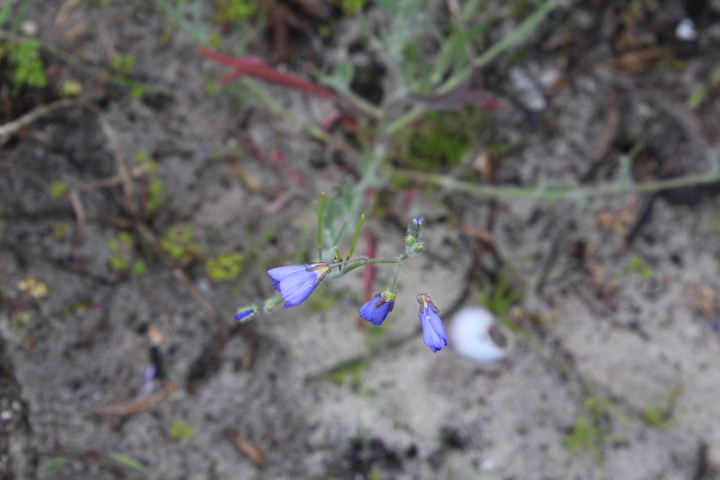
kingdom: Plantae
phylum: Tracheophyta
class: Magnoliopsida
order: Brassicales
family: Brassicaceae
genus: Heliophila
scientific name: Heliophila africana
